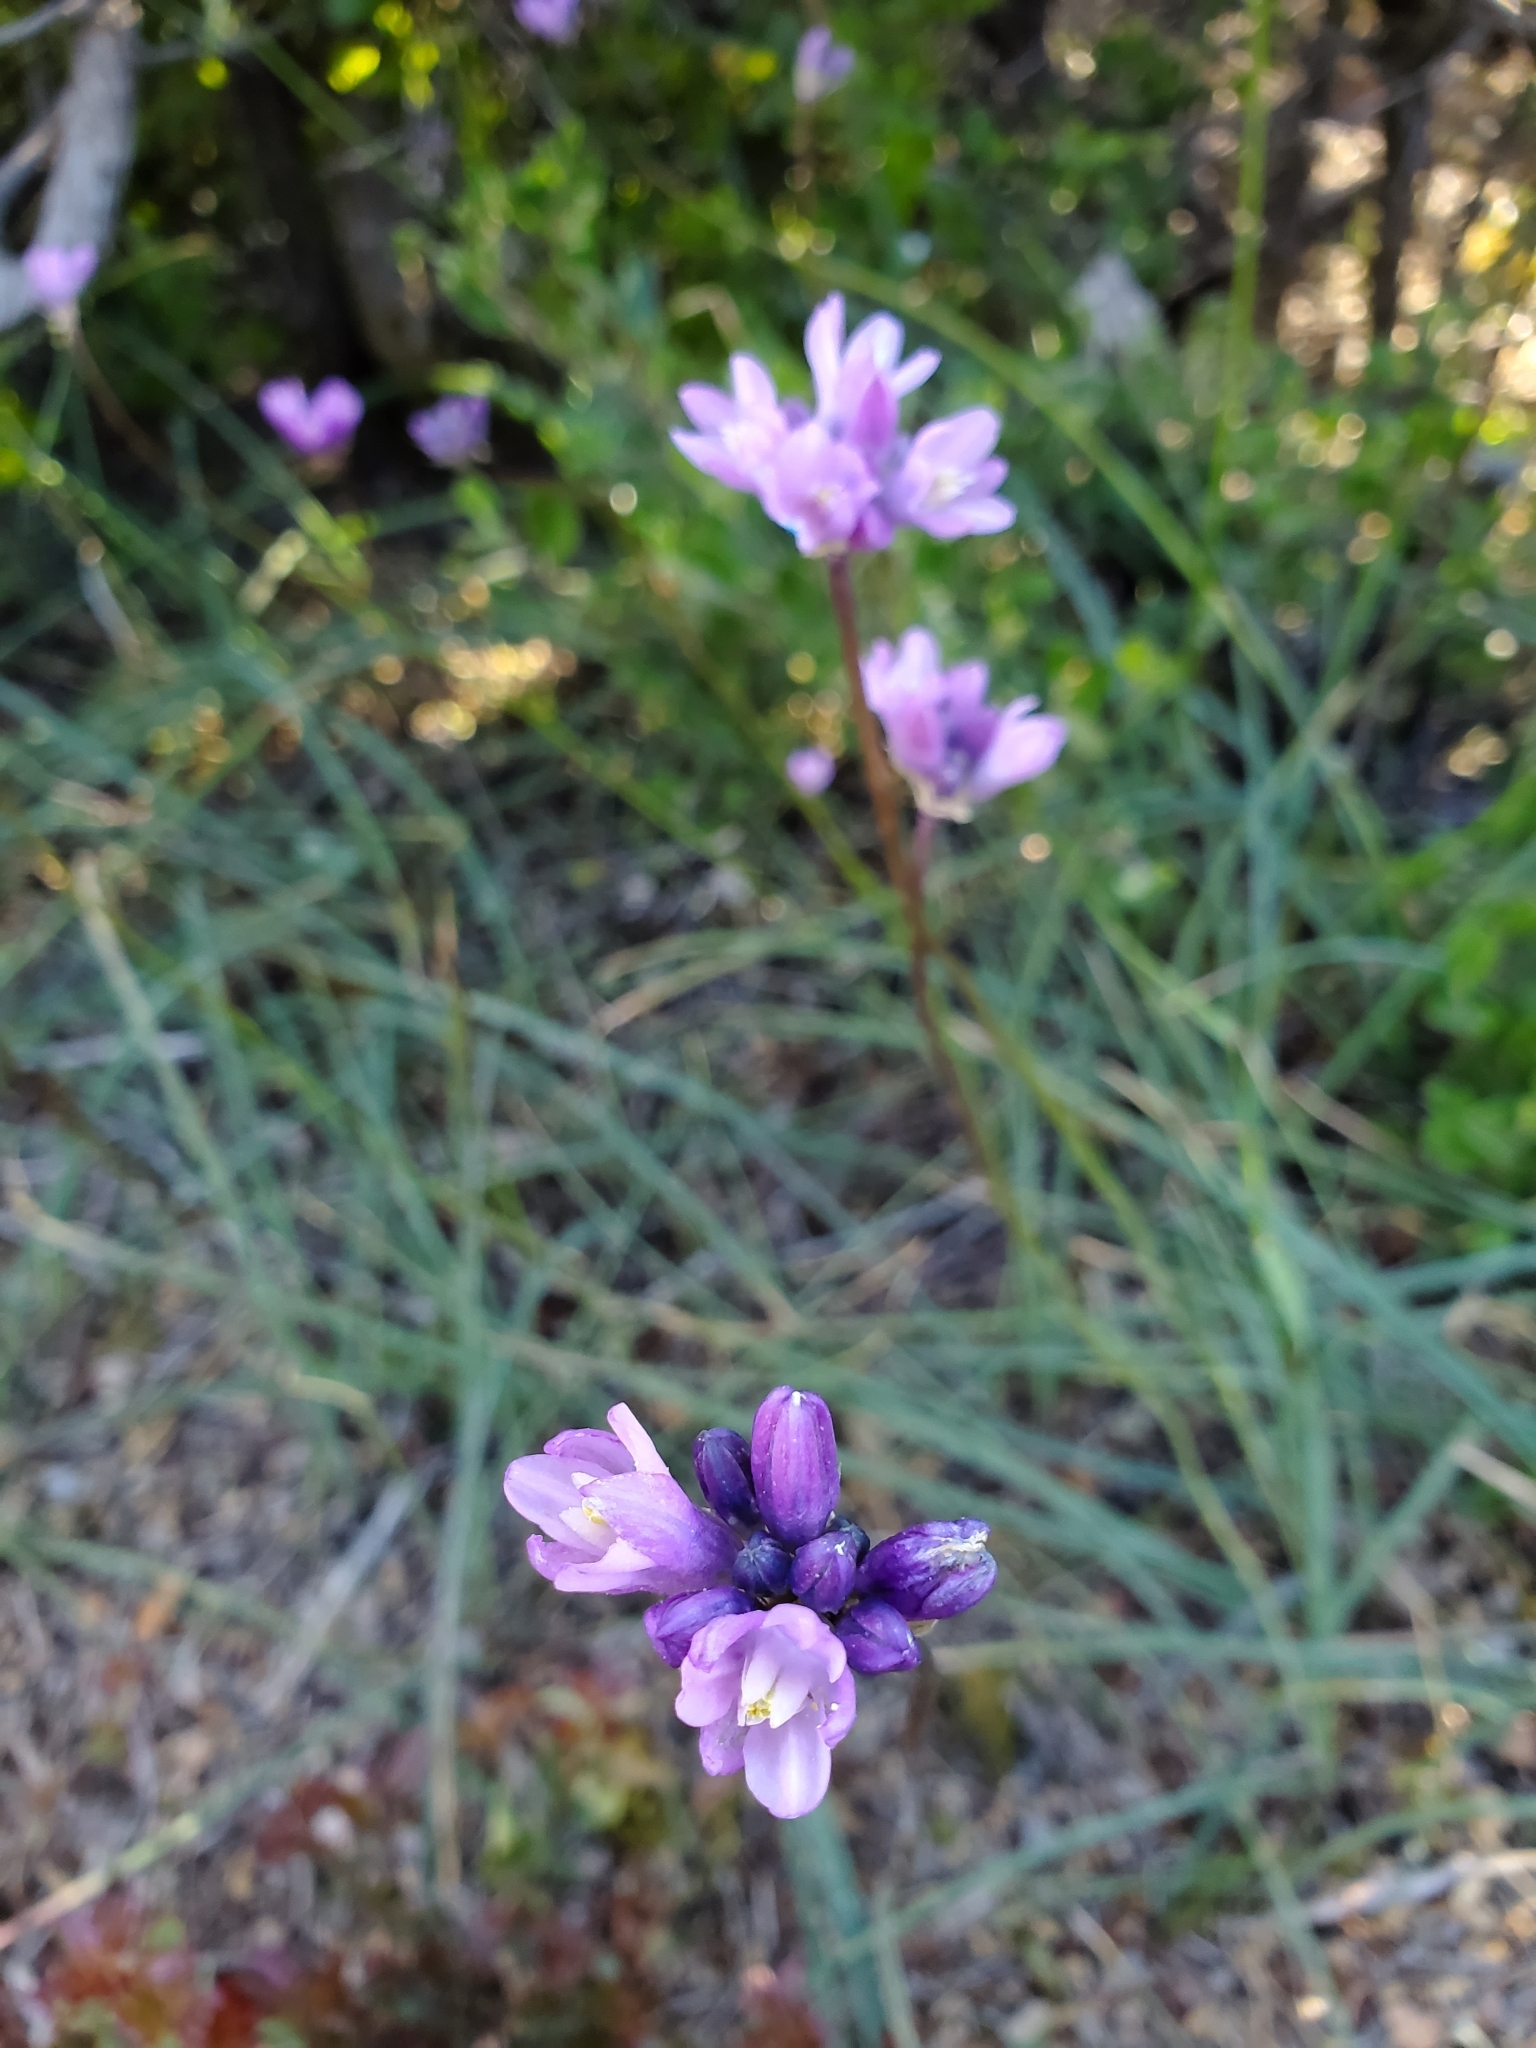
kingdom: Plantae
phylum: Tracheophyta
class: Liliopsida
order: Asparagales
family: Asparagaceae
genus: Dipterostemon
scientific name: Dipterostemon capitatus
